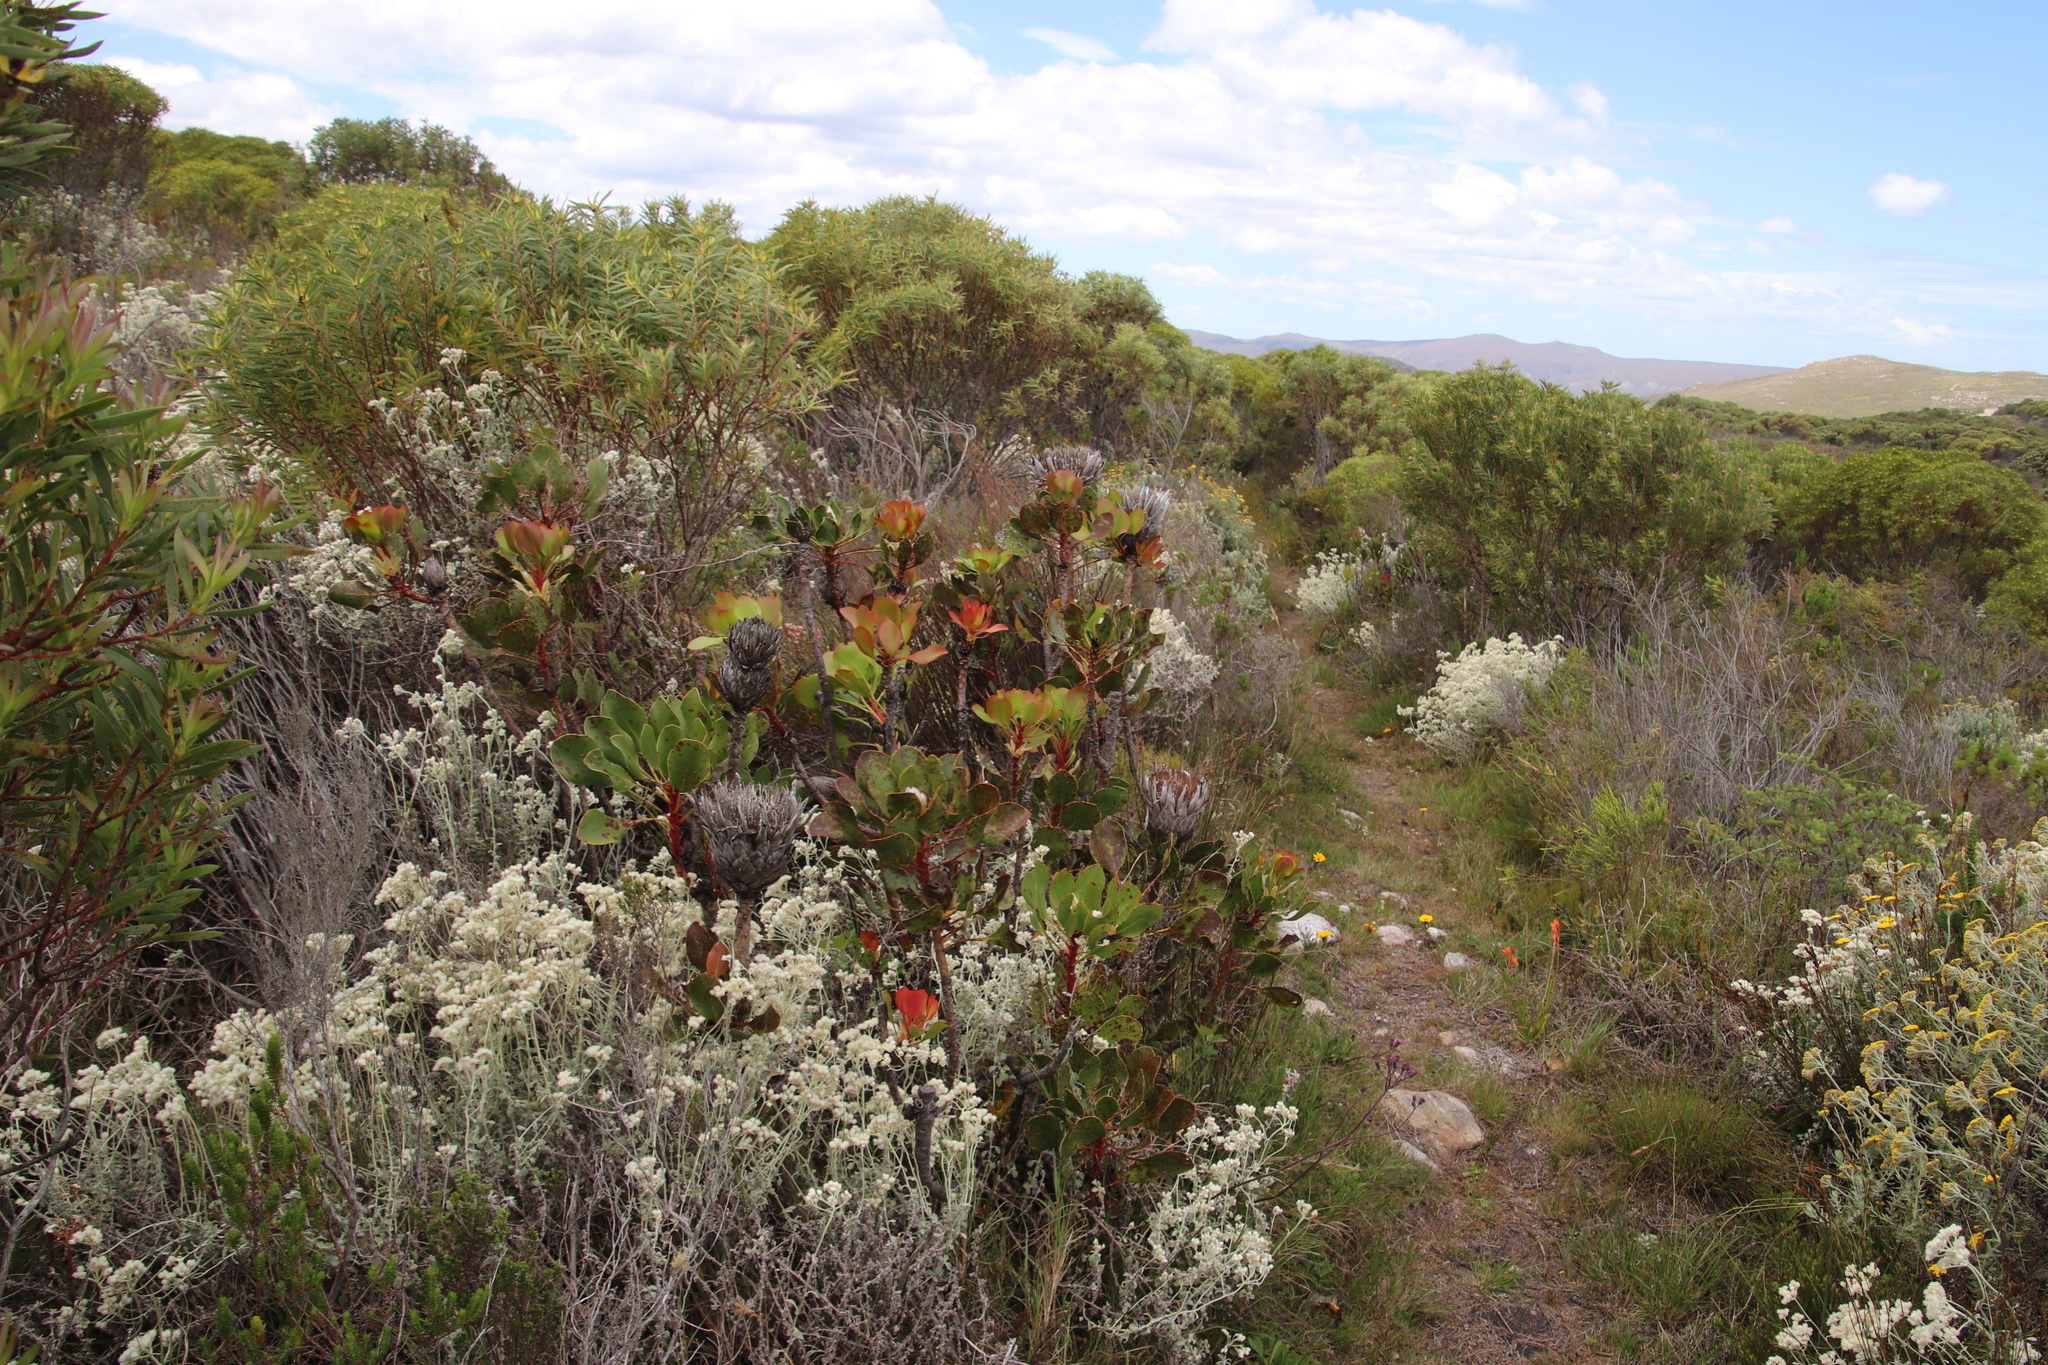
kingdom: Plantae
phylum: Tracheophyta
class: Magnoliopsida
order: Proteales
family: Proteaceae
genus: Protea
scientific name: Protea cynaroides
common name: King protea
